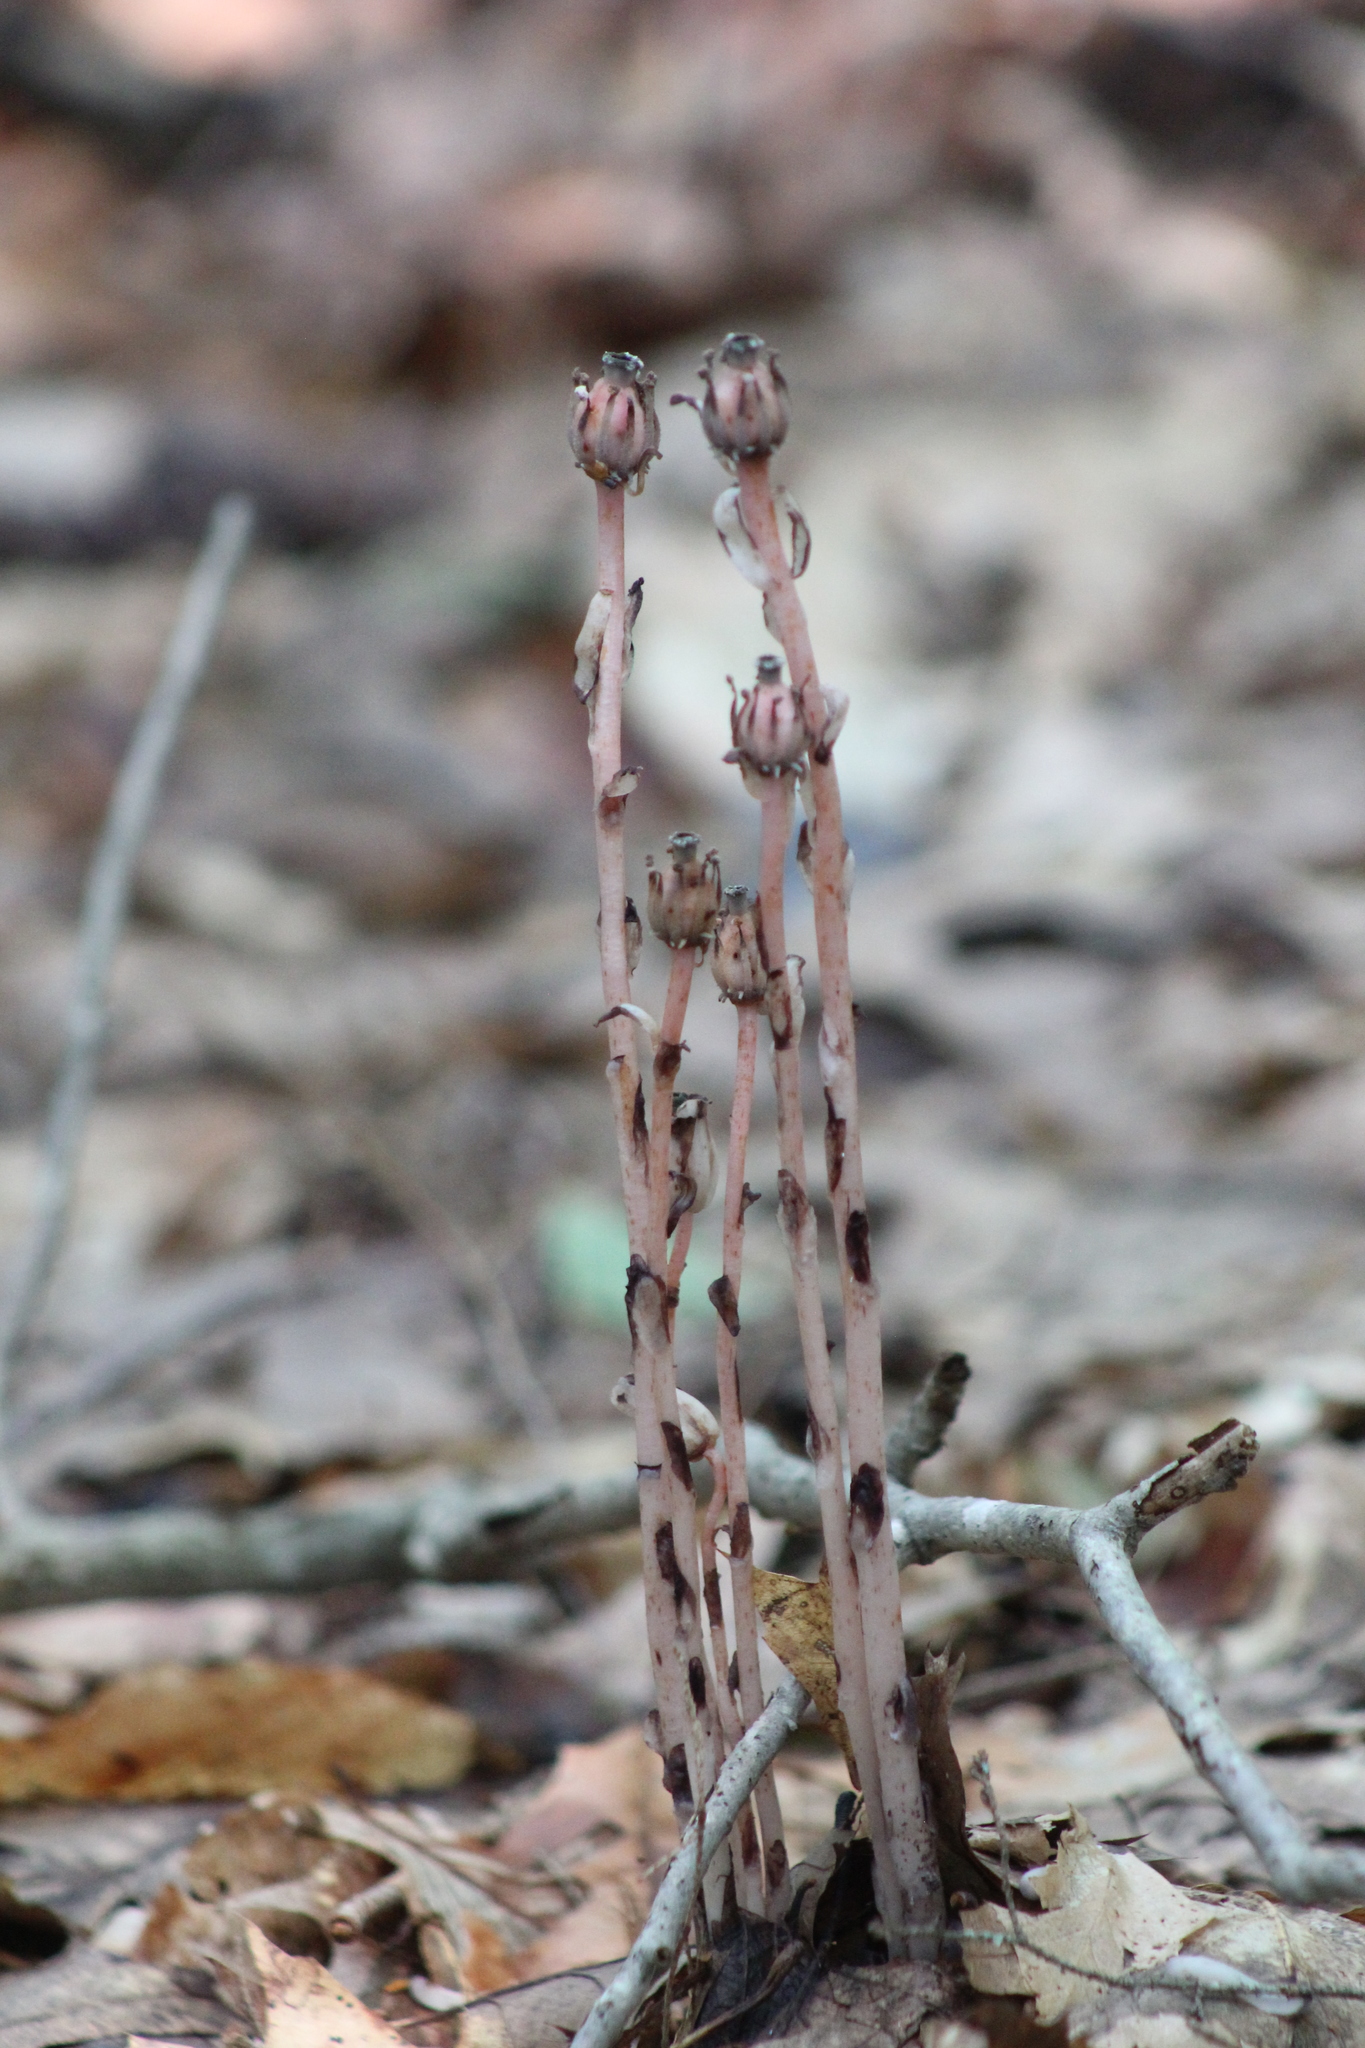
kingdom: Plantae
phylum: Tracheophyta
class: Magnoliopsida
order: Ericales
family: Ericaceae
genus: Monotropa
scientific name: Monotropa uniflora
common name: Convulsion root
